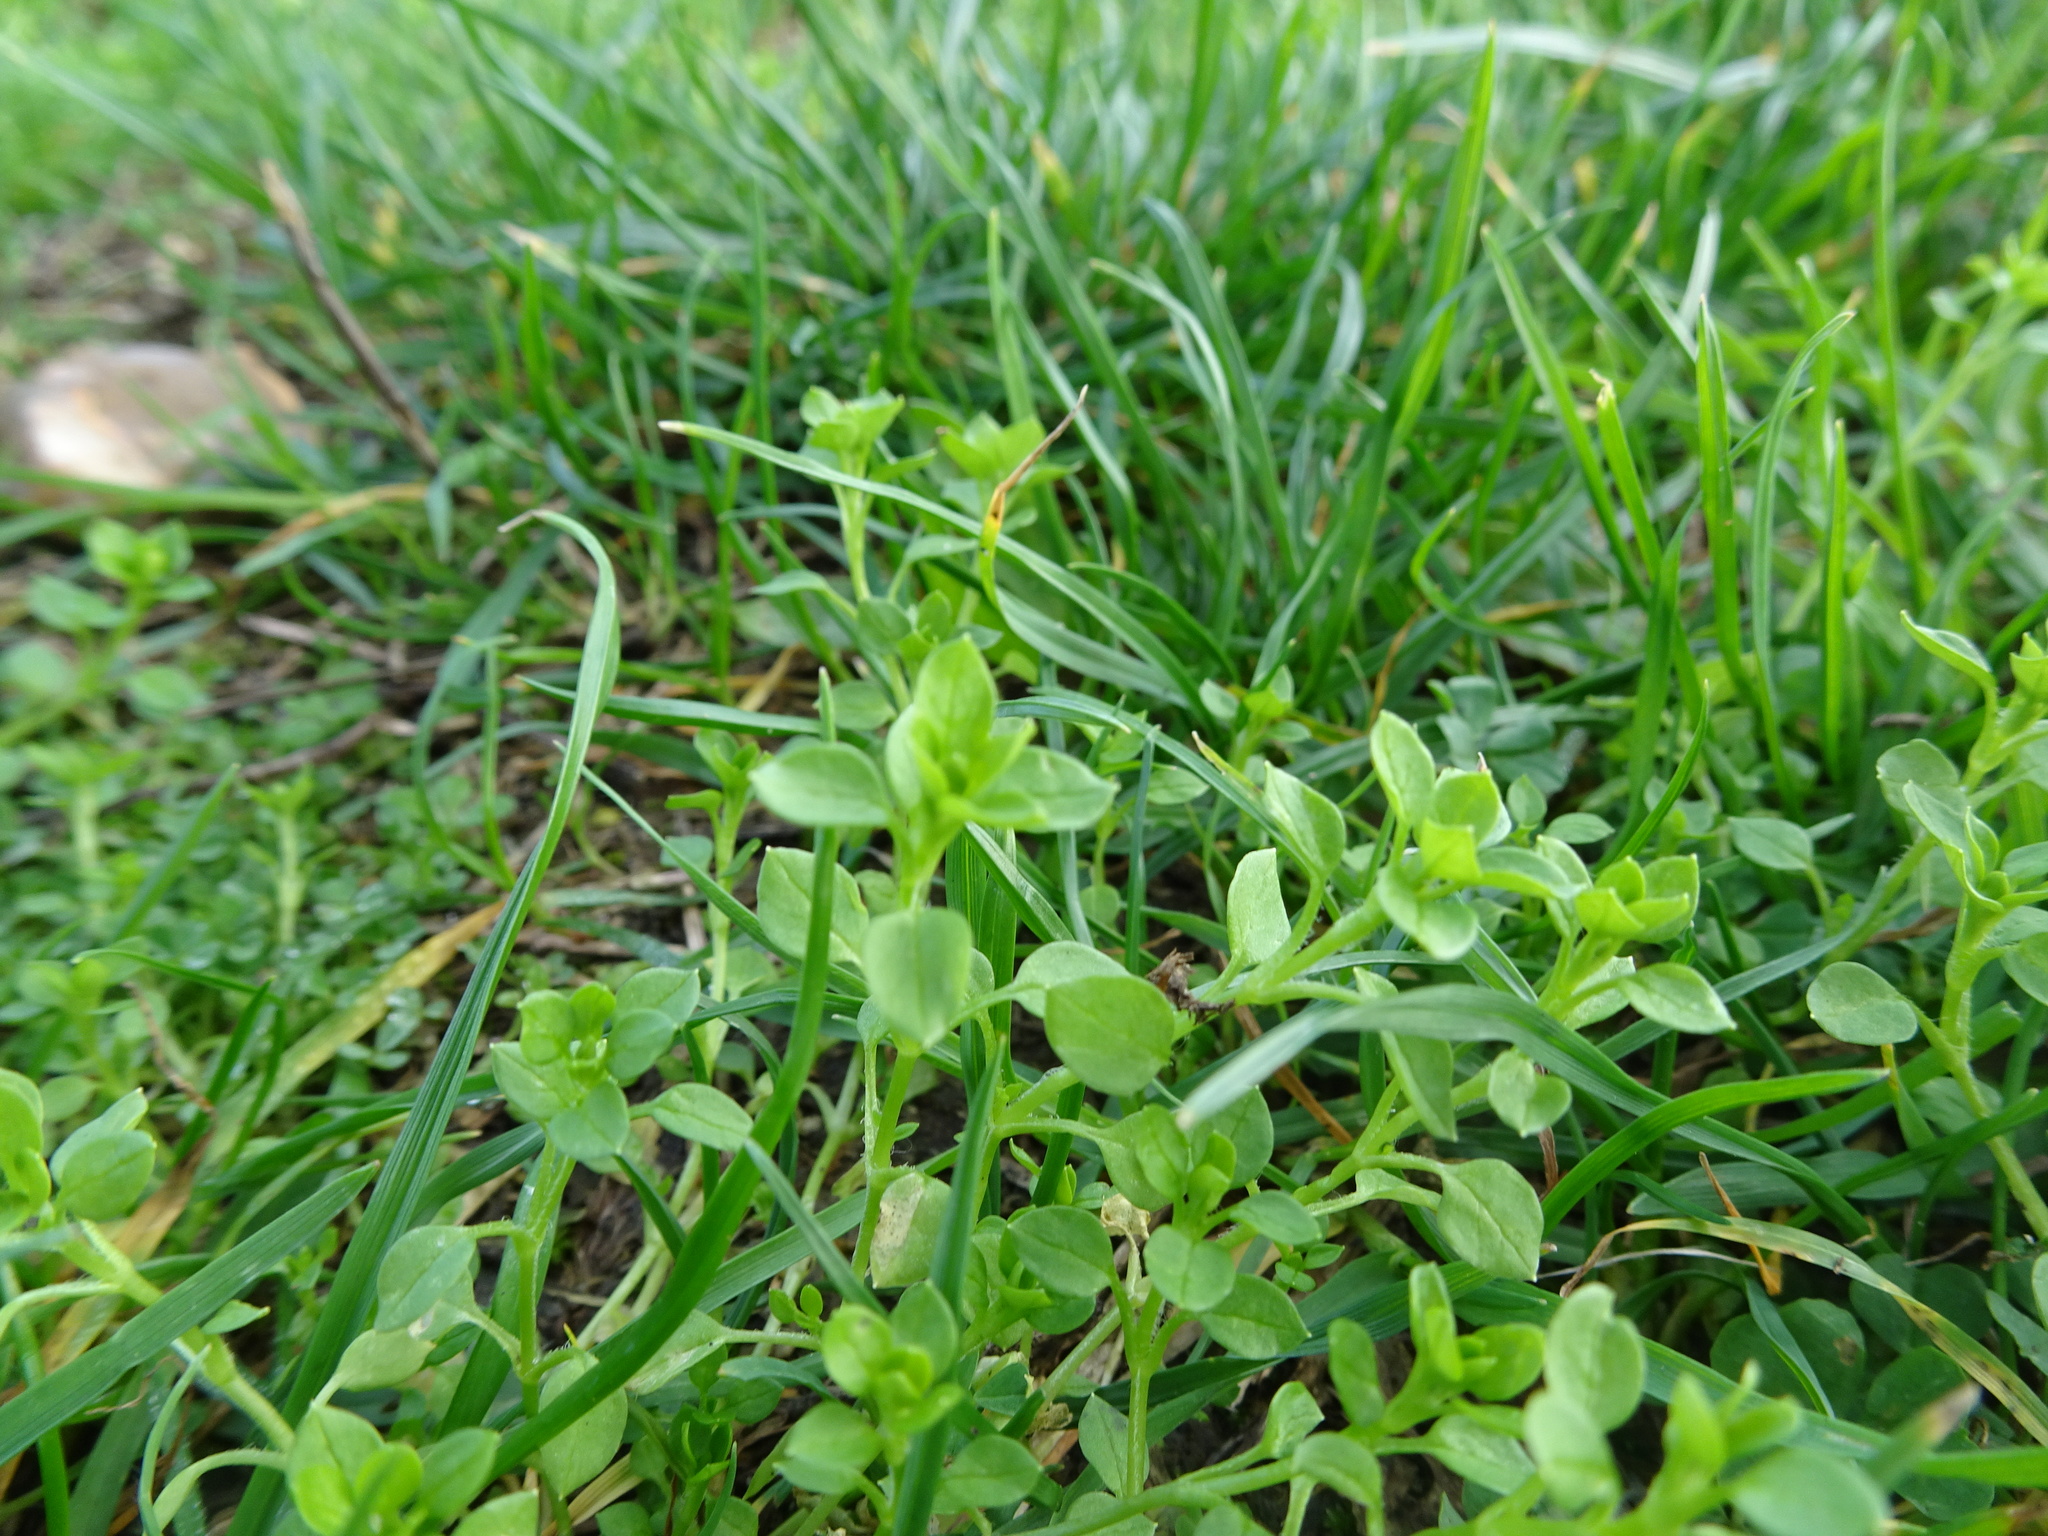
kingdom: Plantae
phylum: Tracheophyta
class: Magnoliopsida
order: Caryophyllales
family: Caryophyllaceae
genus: Stellaria
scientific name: Stellaria media
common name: Common chickweed
